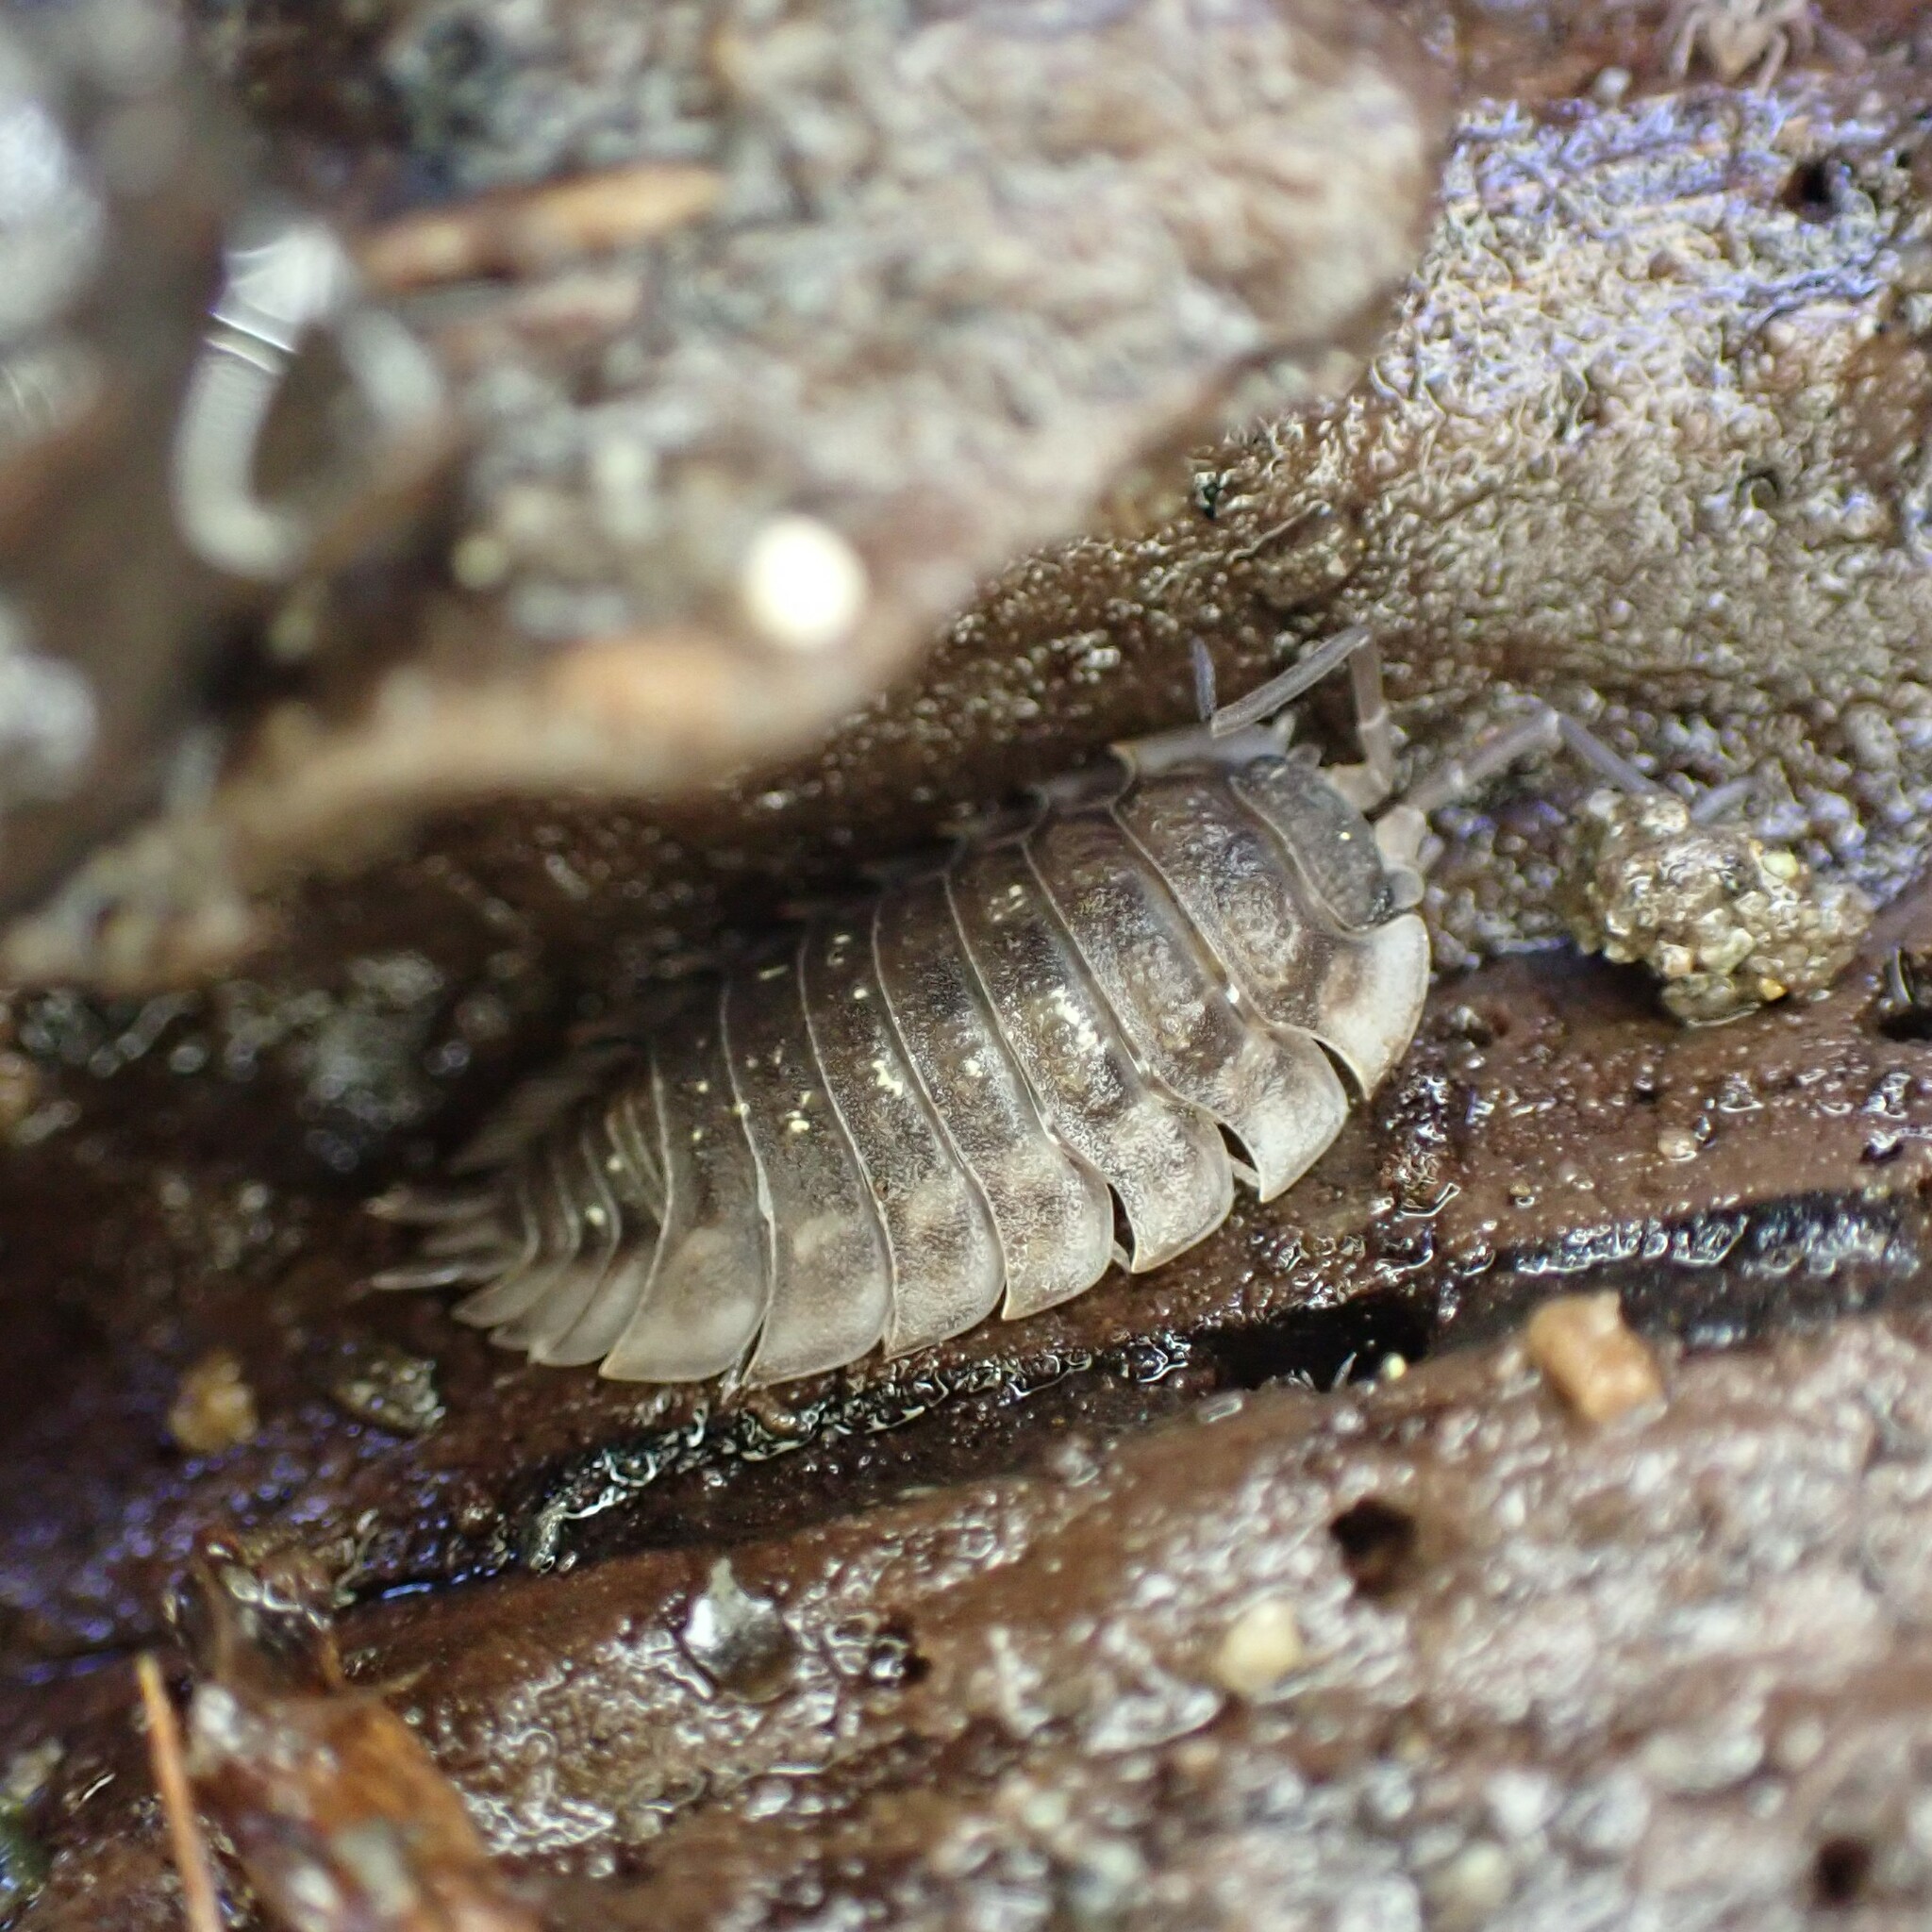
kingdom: Animalia
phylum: Arthropoda
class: Malacostraca
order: Isopoda
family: Oniscidae
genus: Oniscus
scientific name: Oniscus asellus
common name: Common shiny woodlouse
